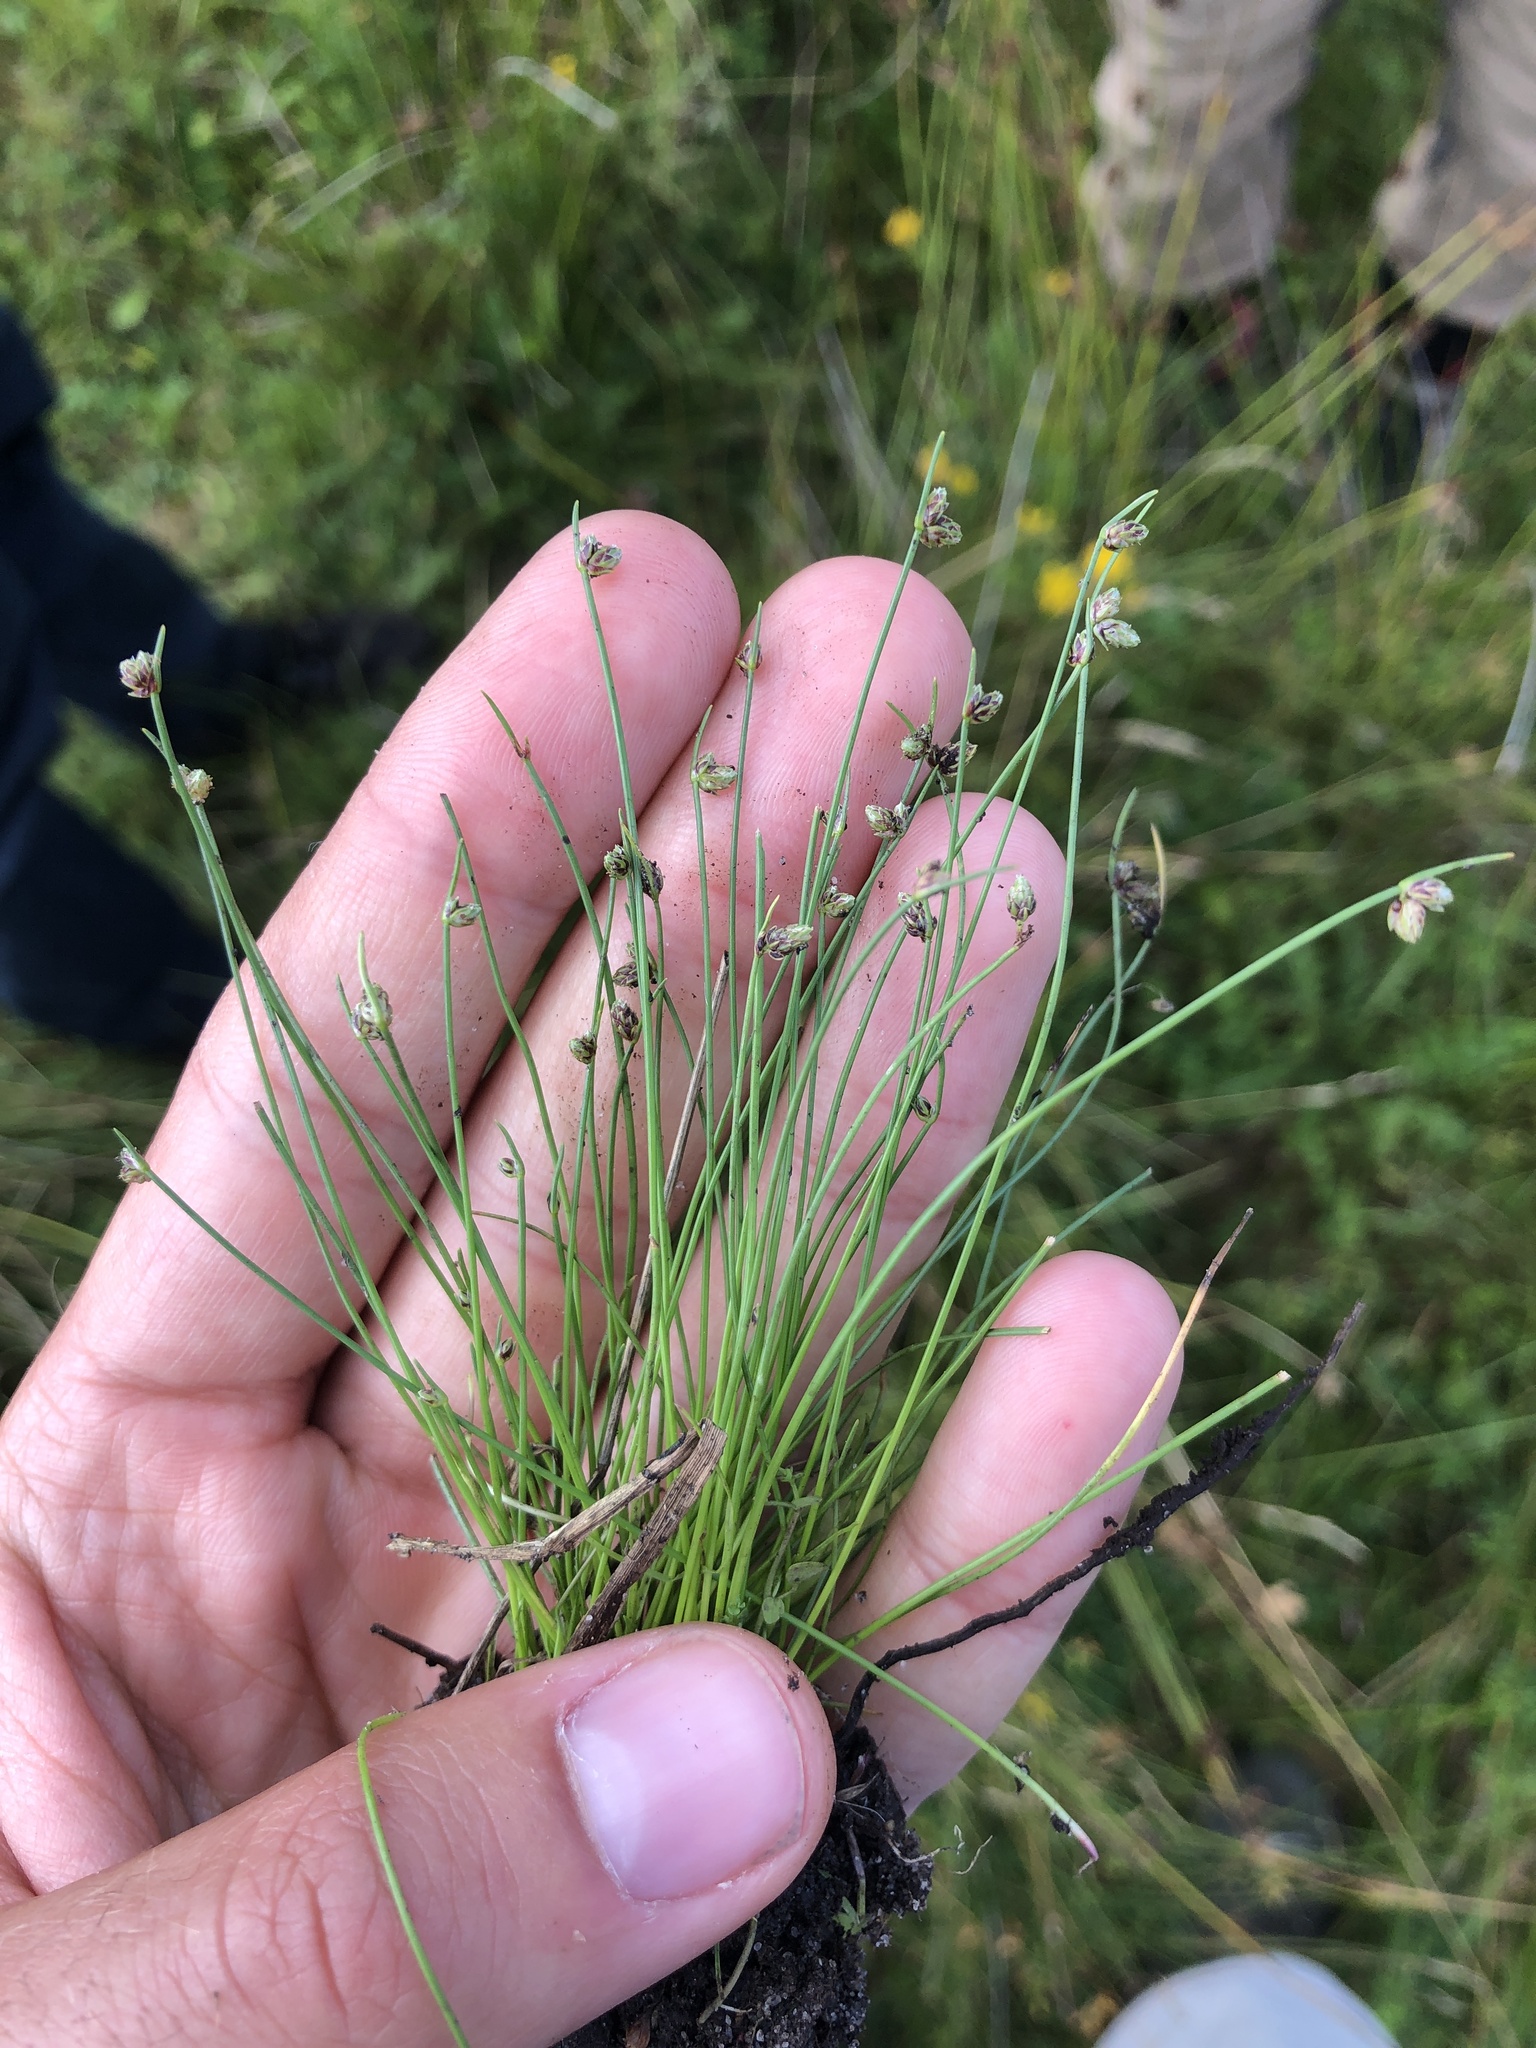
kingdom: Plantae
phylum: Tracheophyta
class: Liliopsida
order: Poales
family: Cyperaceae
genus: Isolepis
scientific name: Isolepis setacea
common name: Bristle club-rush
